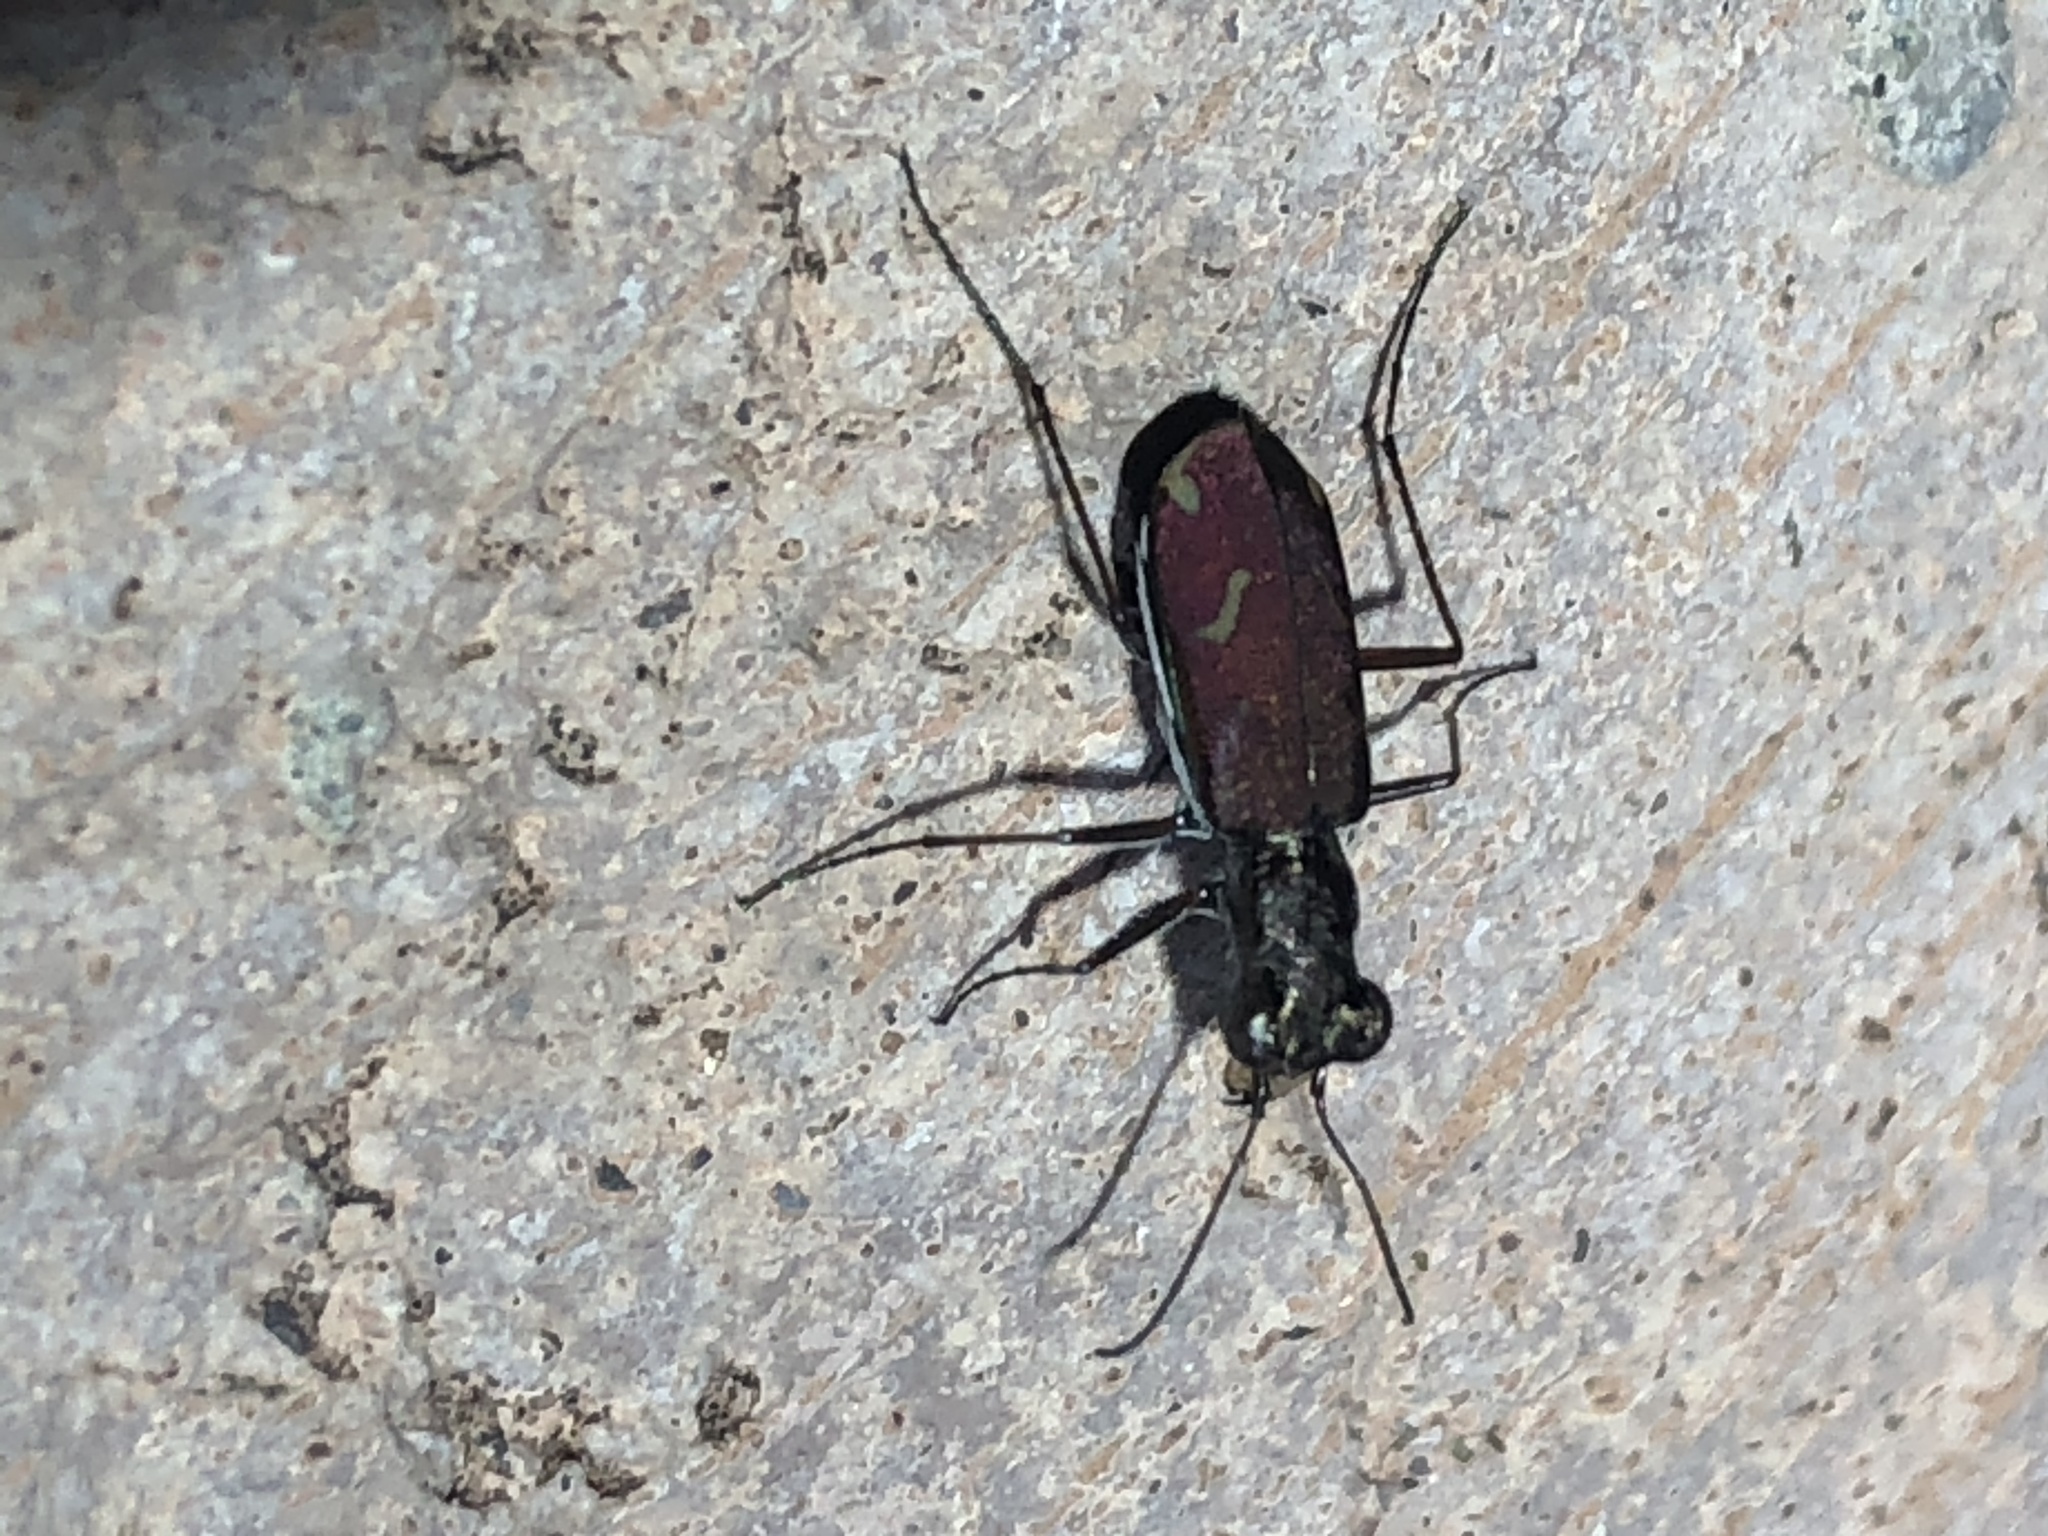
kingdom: Animalia
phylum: Arthropoda
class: Insecta
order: Coleoptera
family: Carabidae
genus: Brasiella
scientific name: Brasiella wickhami
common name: Sonoran tiger beetle
